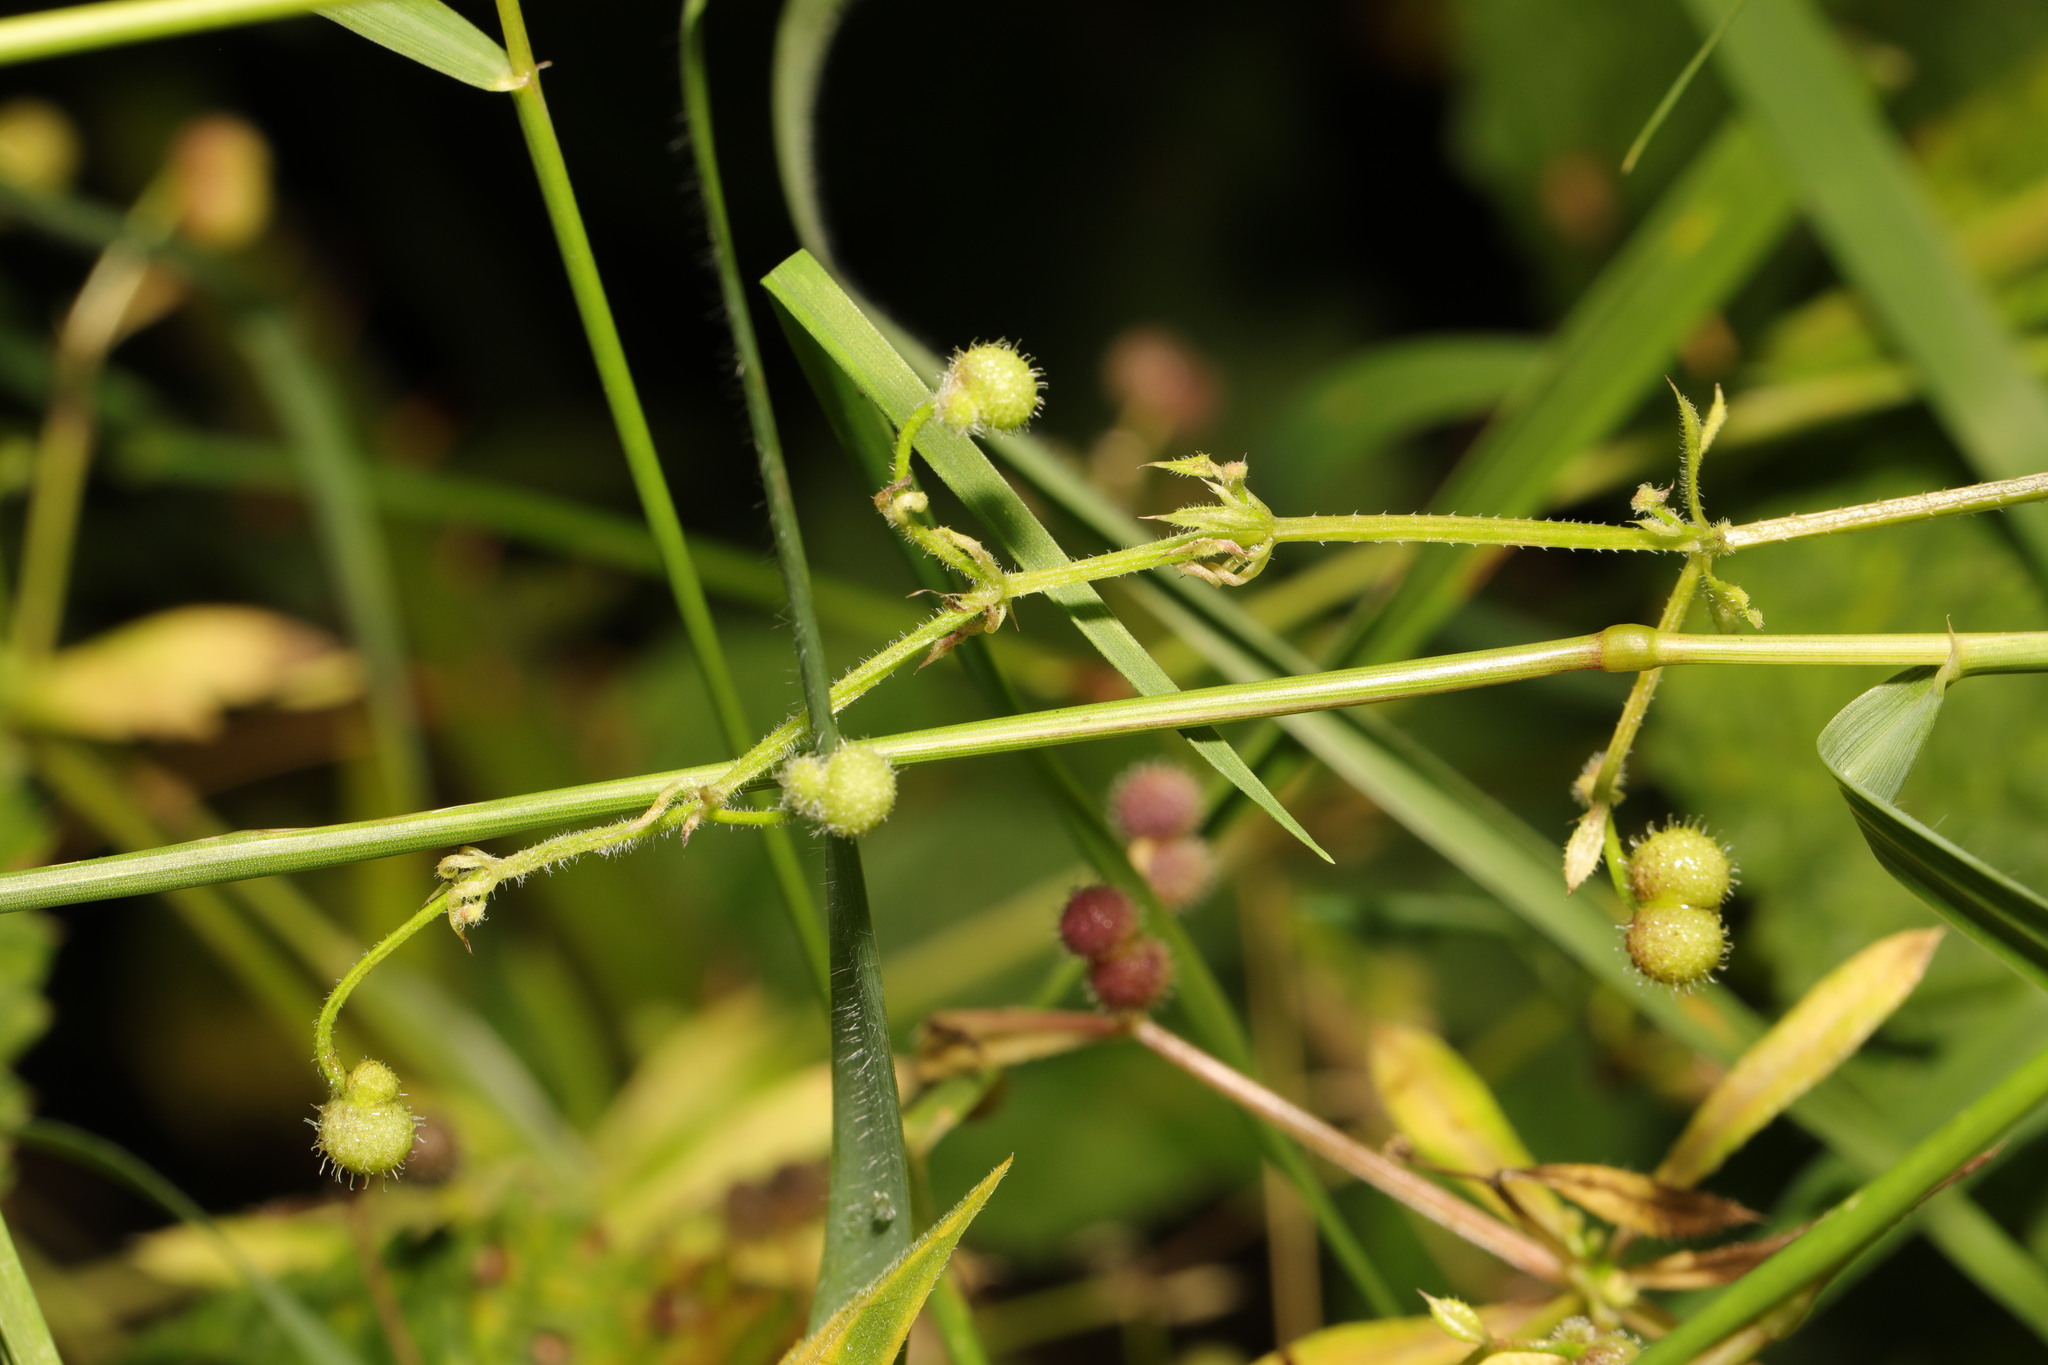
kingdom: Plantae
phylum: Tracheophyta
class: Magnoliopsida
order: Gentianales
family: Rubiaceae
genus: Galium
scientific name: Galium aparine
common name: Cleavers
